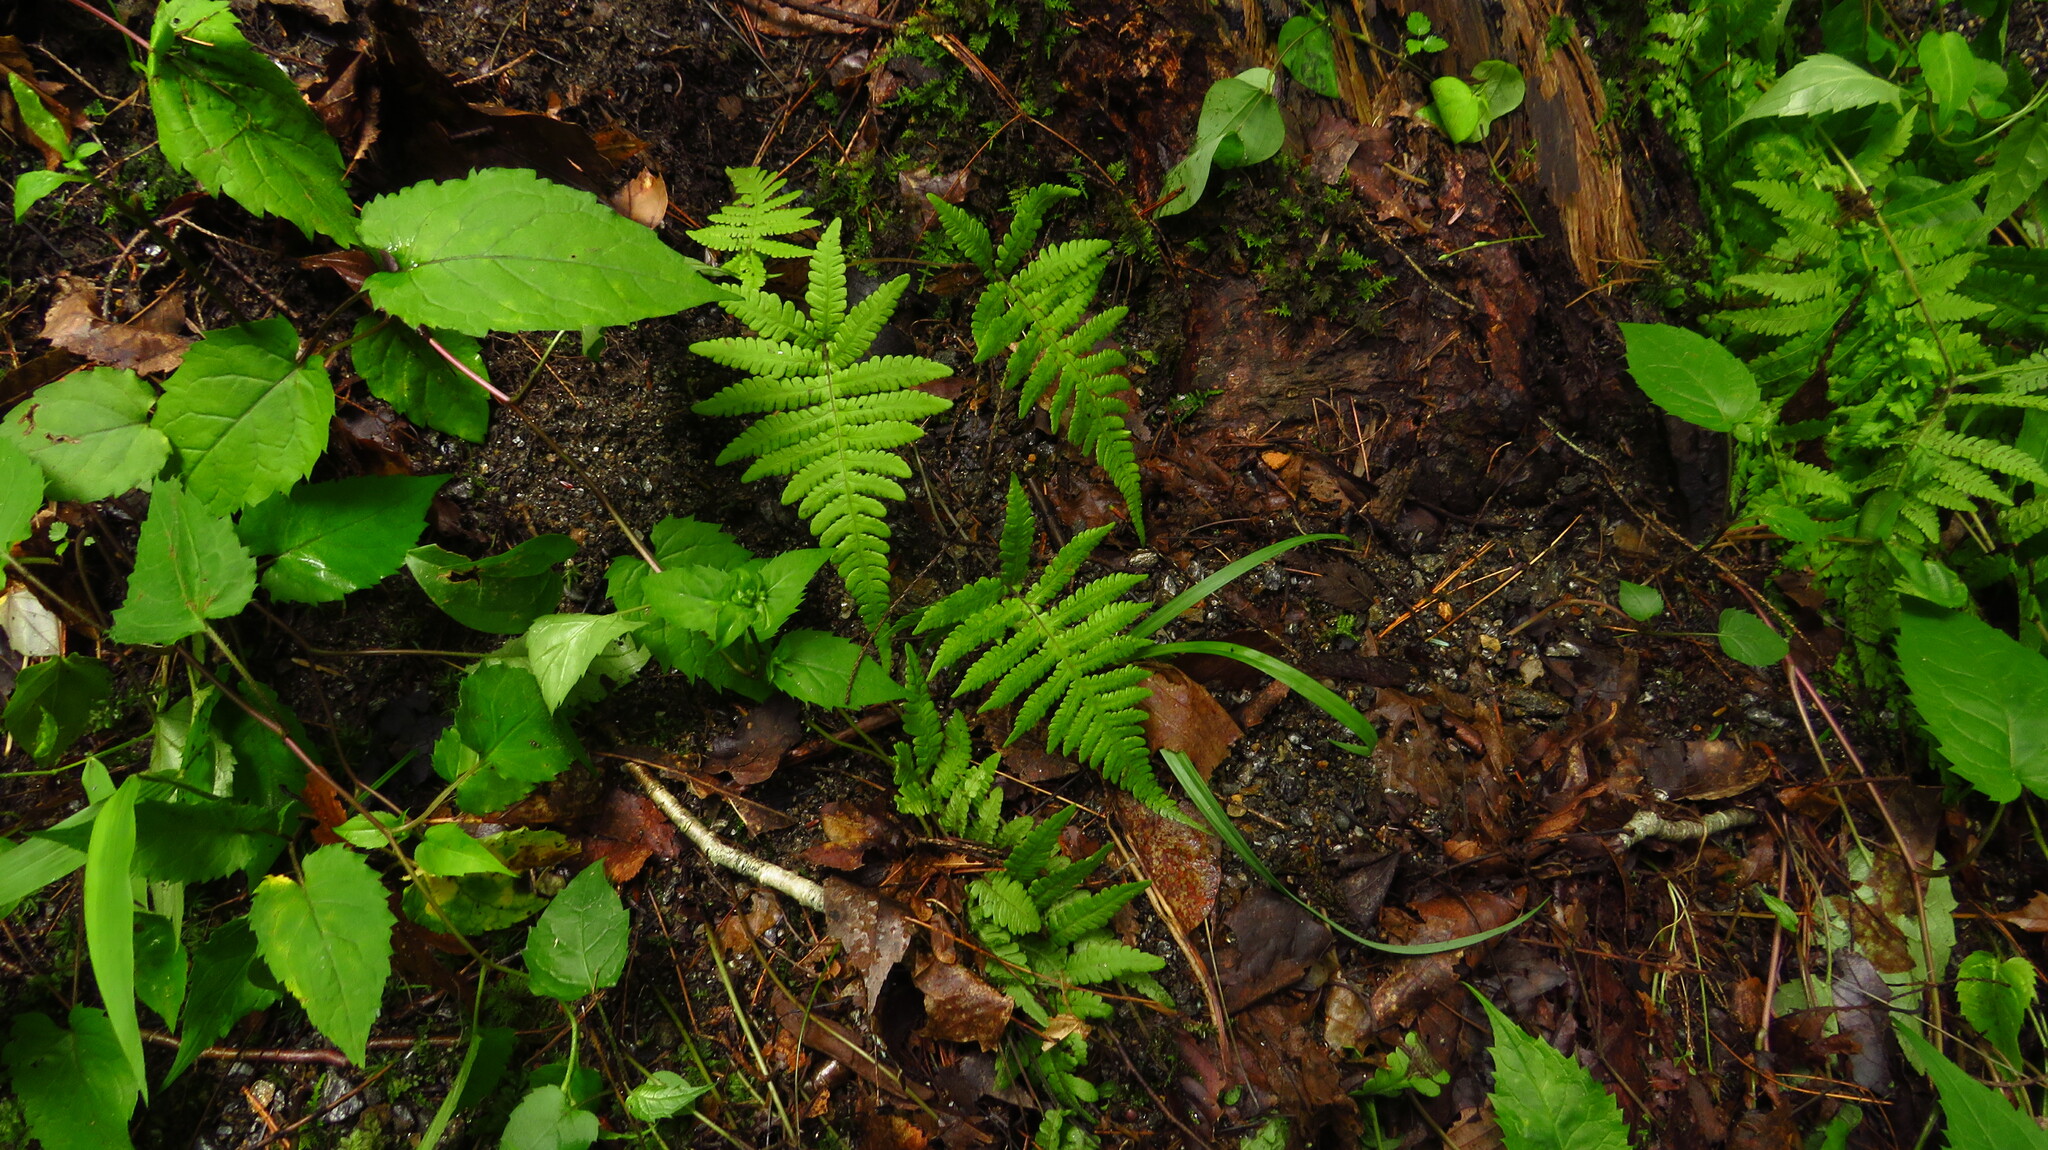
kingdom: Plantae
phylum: Tracheophyta
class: Polypodiopsida
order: Polypodiales
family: Thelypteridaceae
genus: Phegopteris
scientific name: Phegopteris connectilis
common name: Beech fern
